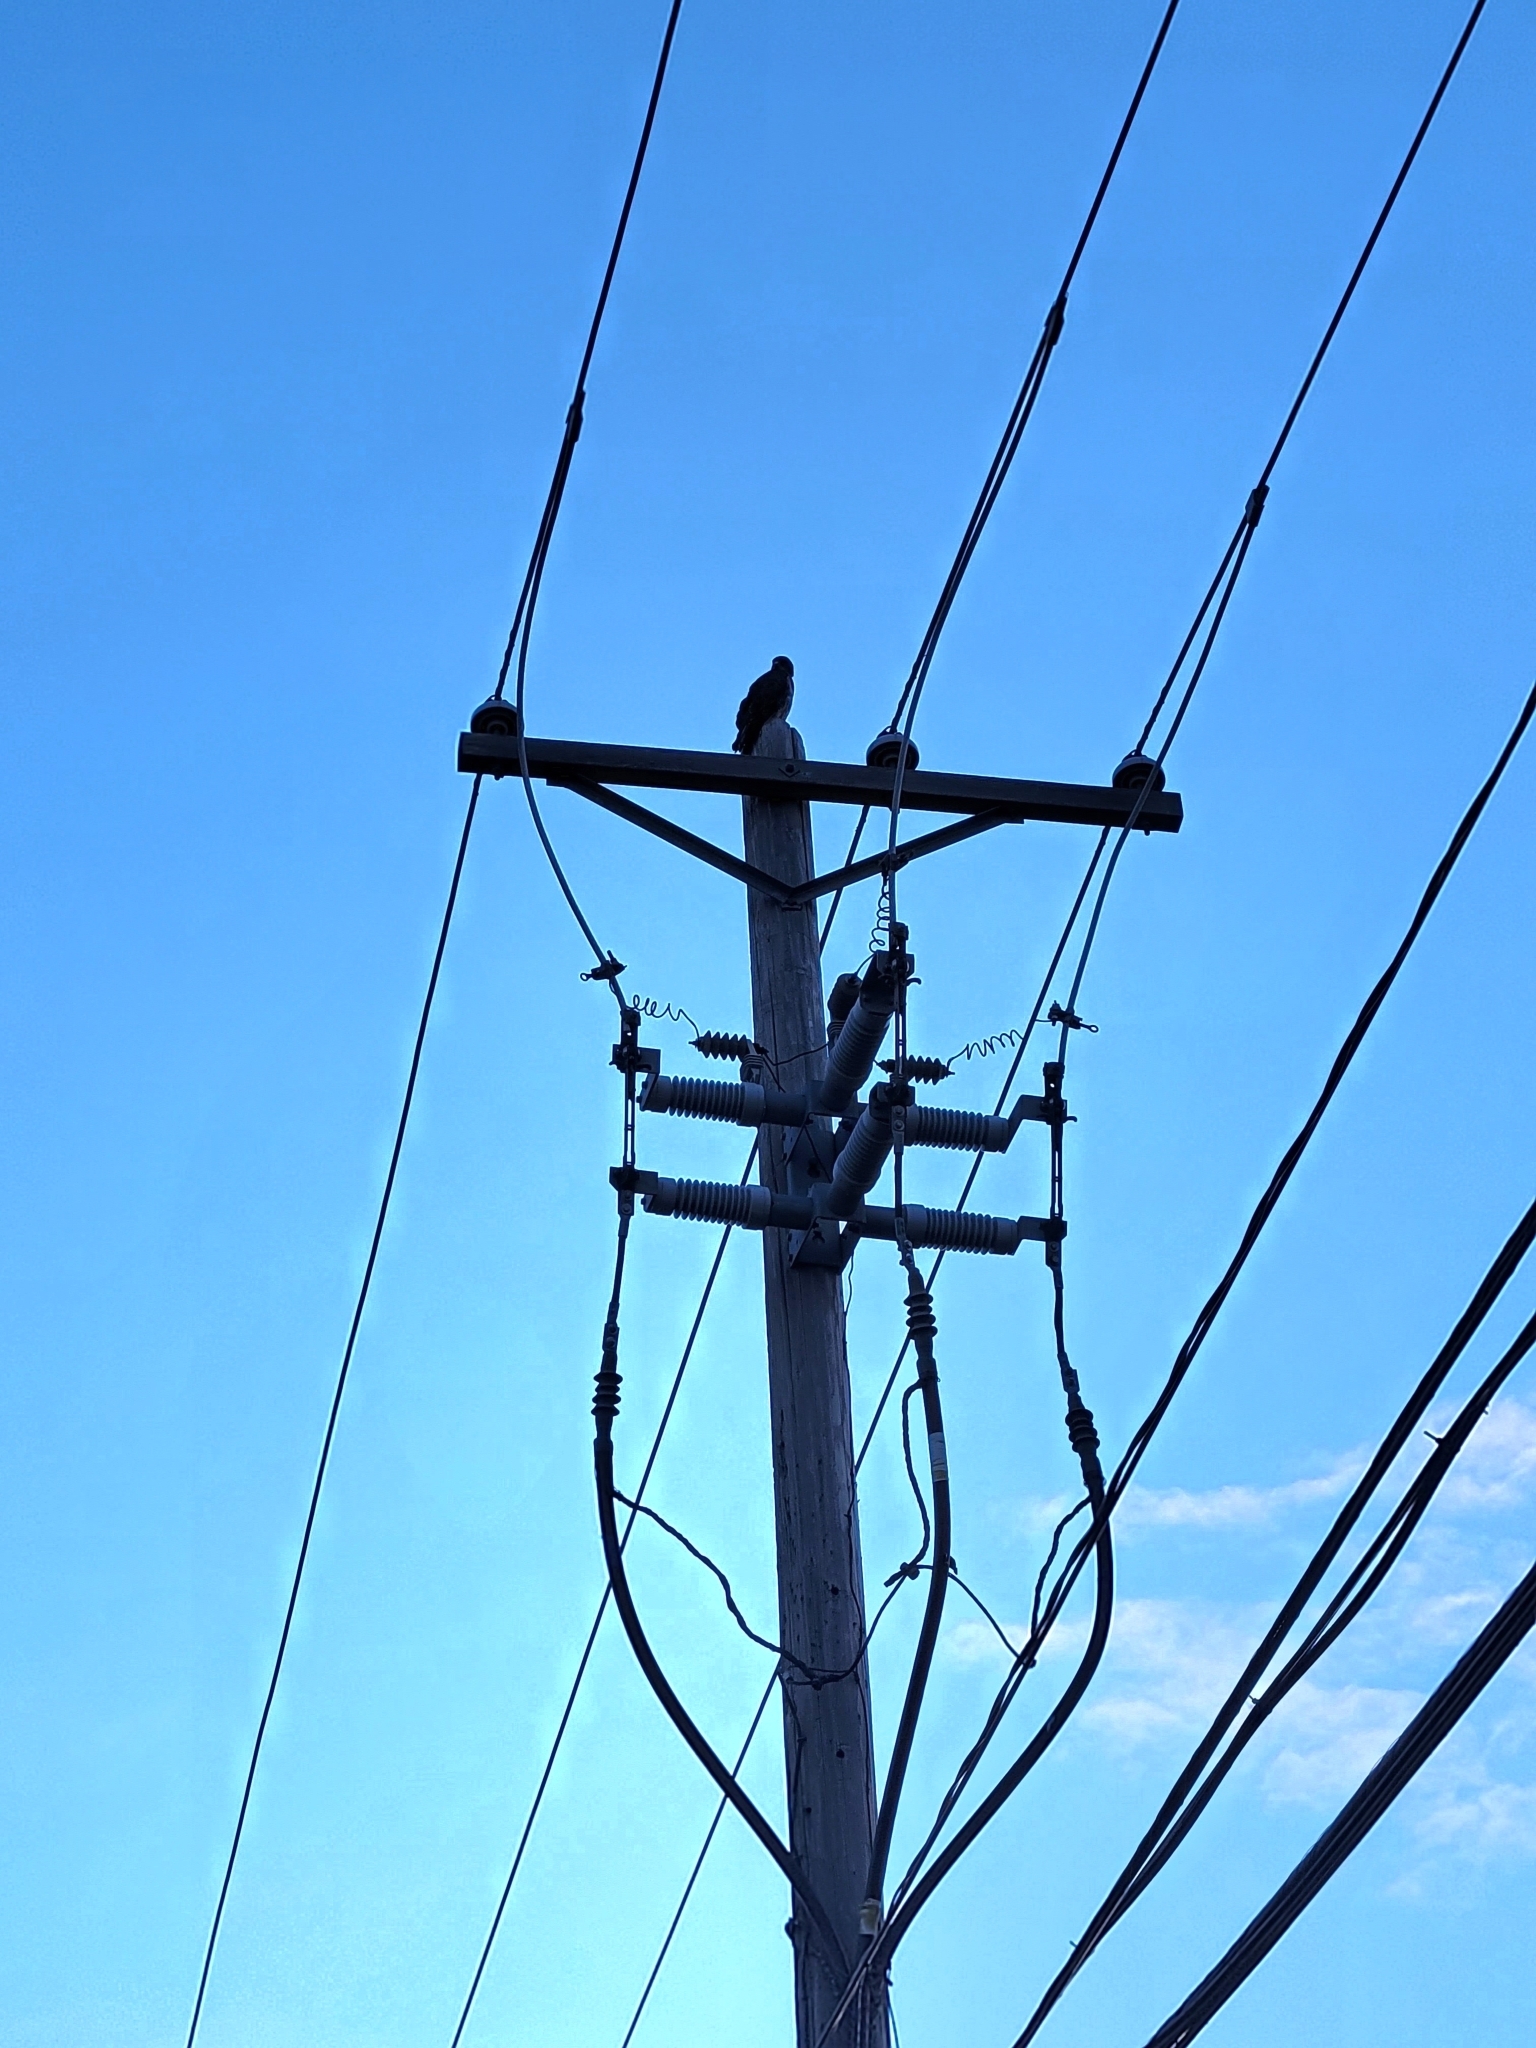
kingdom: Animalia
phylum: Chordata
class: Aves
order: Accipitriformes
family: Accipitridae
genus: Buteo
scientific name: Buteo swainsoni
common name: Swainson's hawk
